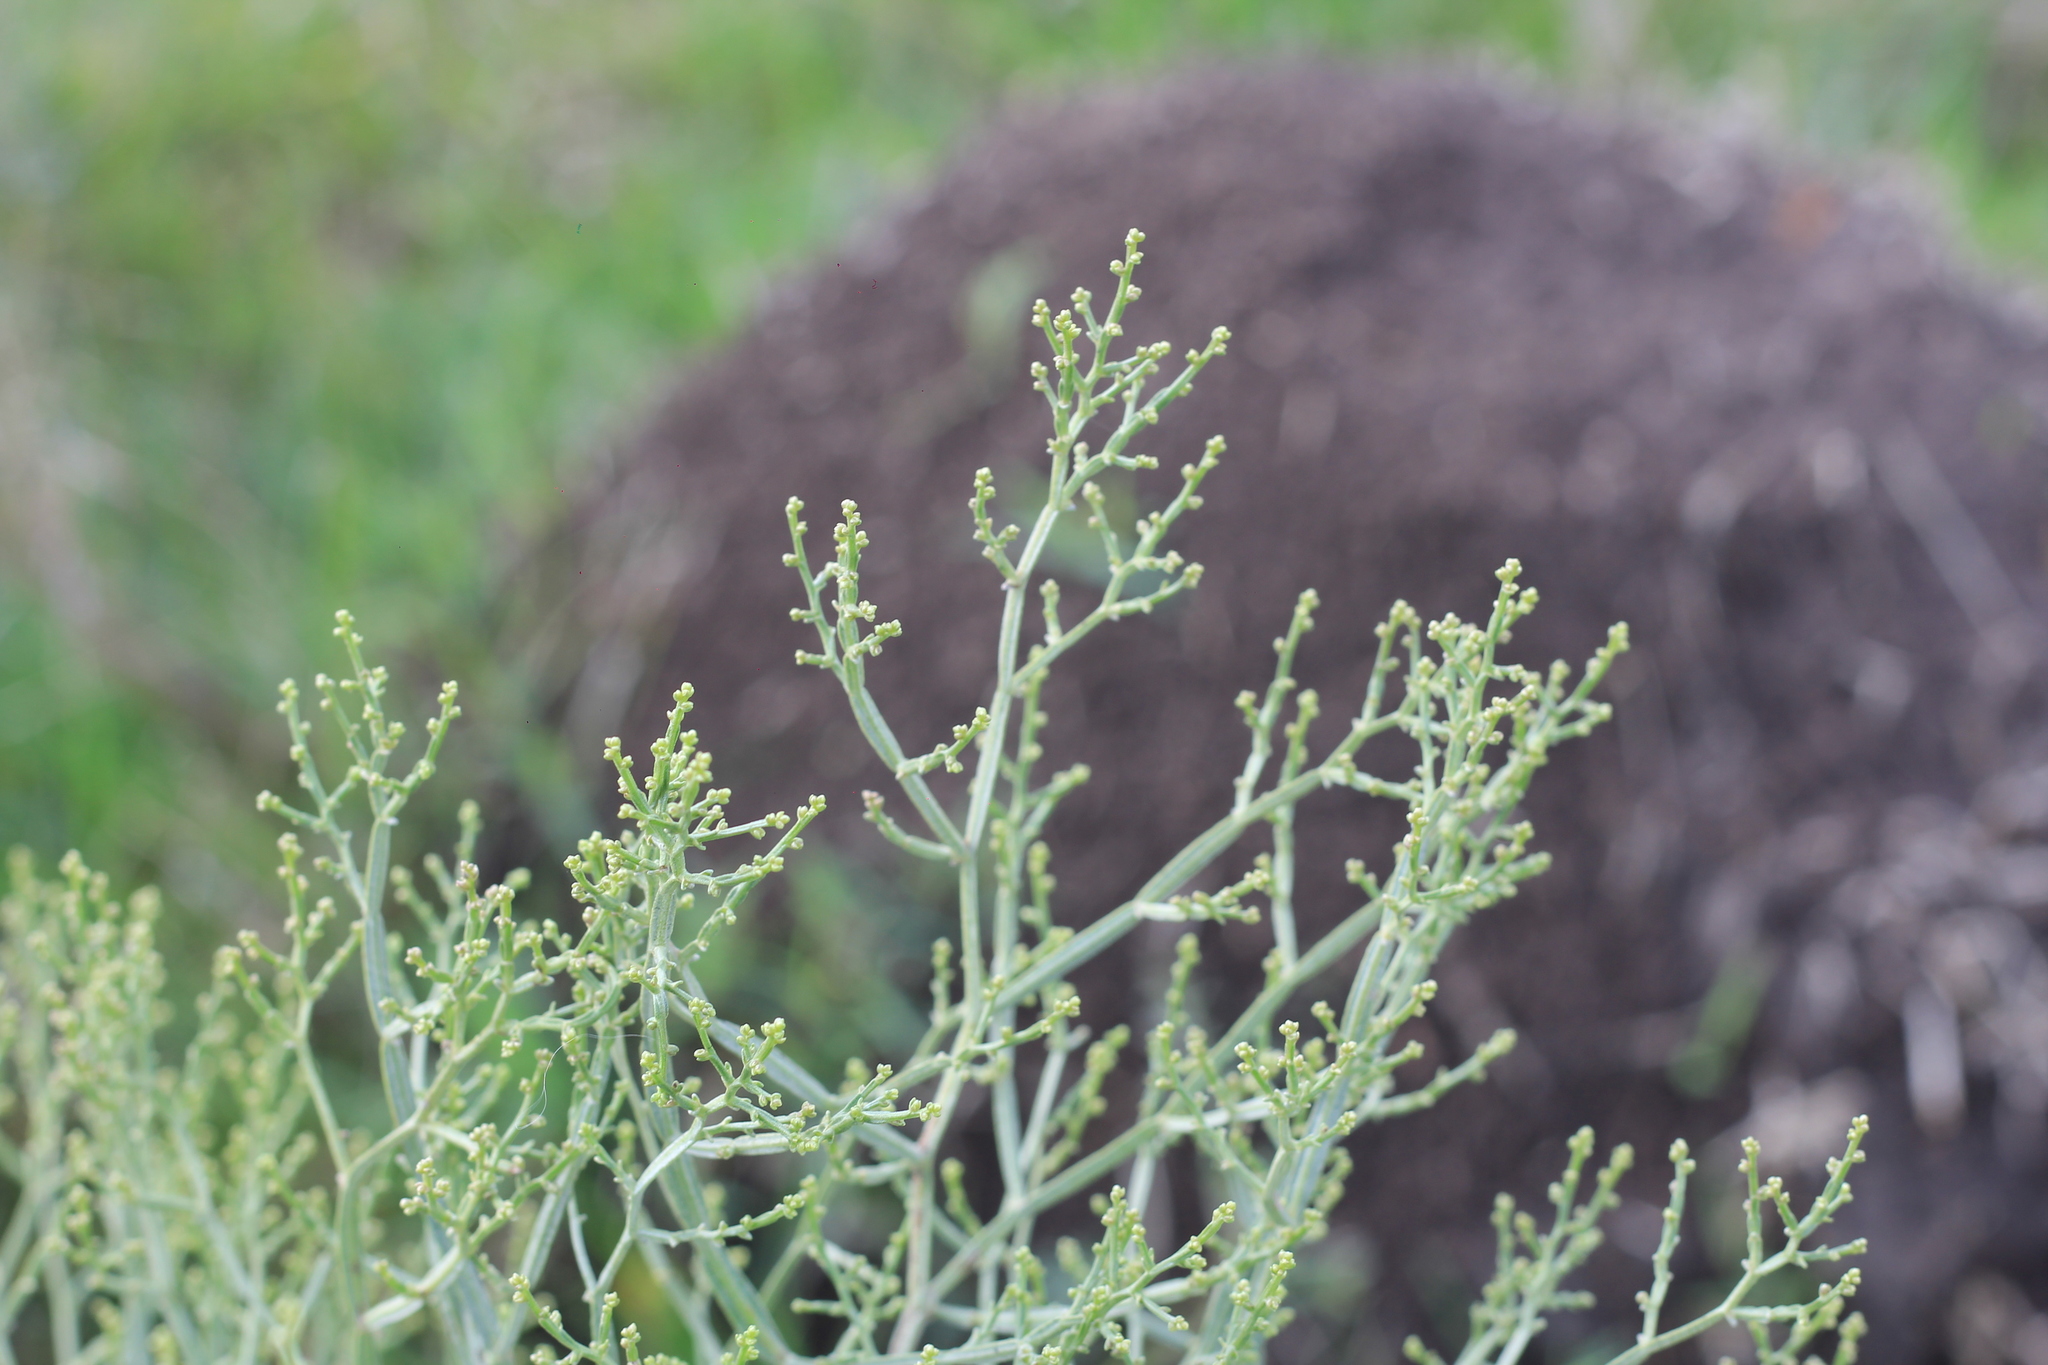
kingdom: Plantae
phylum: Tracheophyta
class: Magnoliopsida
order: Asterales
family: Asteraceae
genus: Baccharis
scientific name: Baccharis articulata
